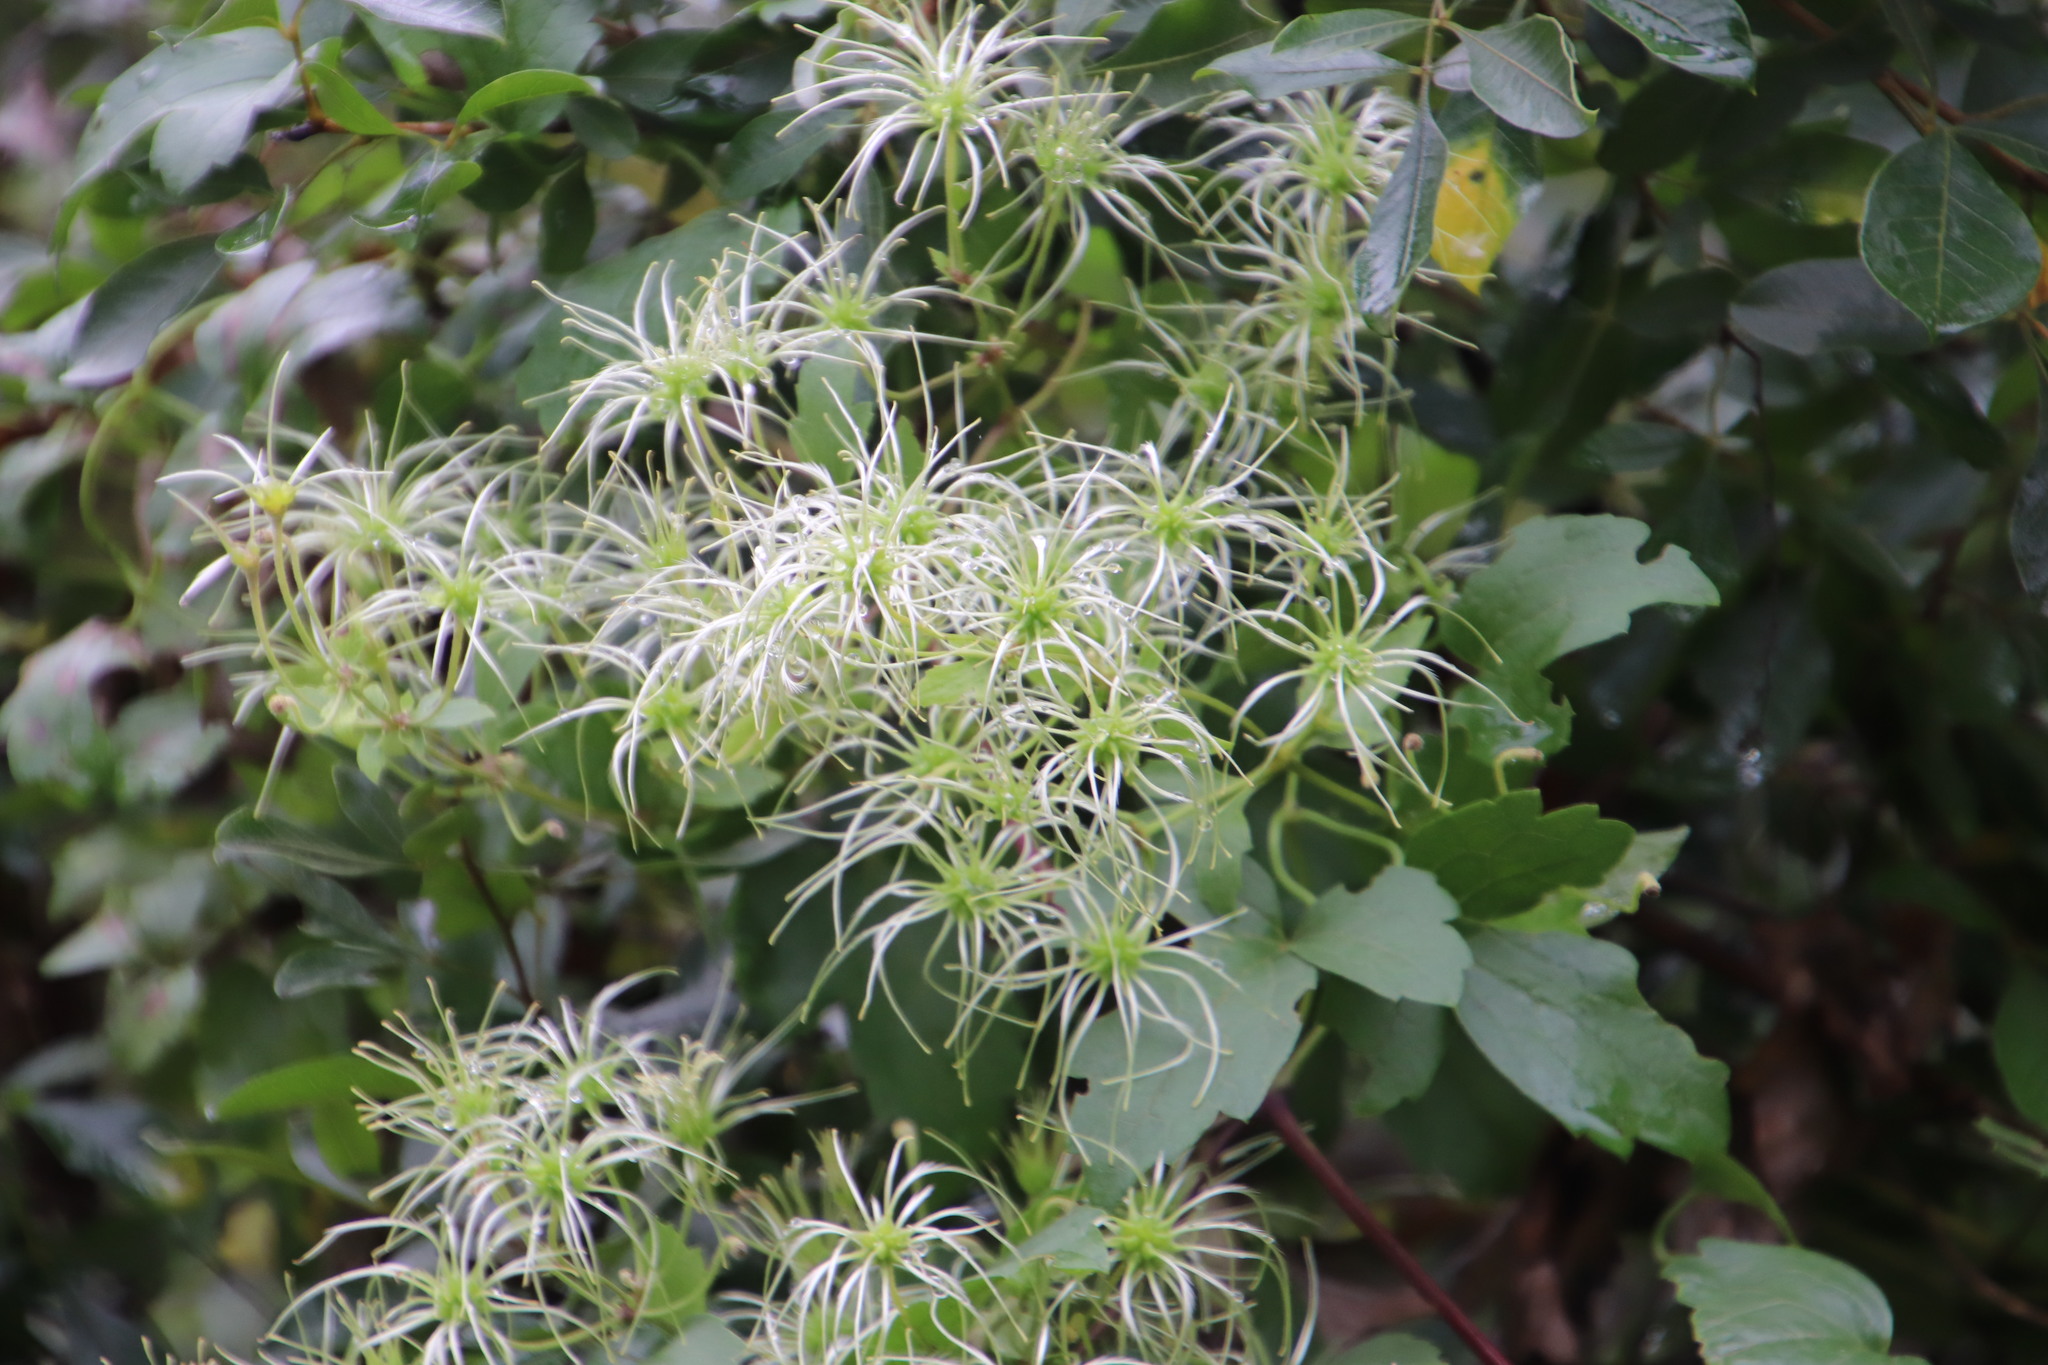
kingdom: Plantae
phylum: Tracheophyta
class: Magnoliopsida
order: Ranunculales
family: Ranunculaceae
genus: Clematis
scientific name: Clematis brachiata
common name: Traveler's-joy
